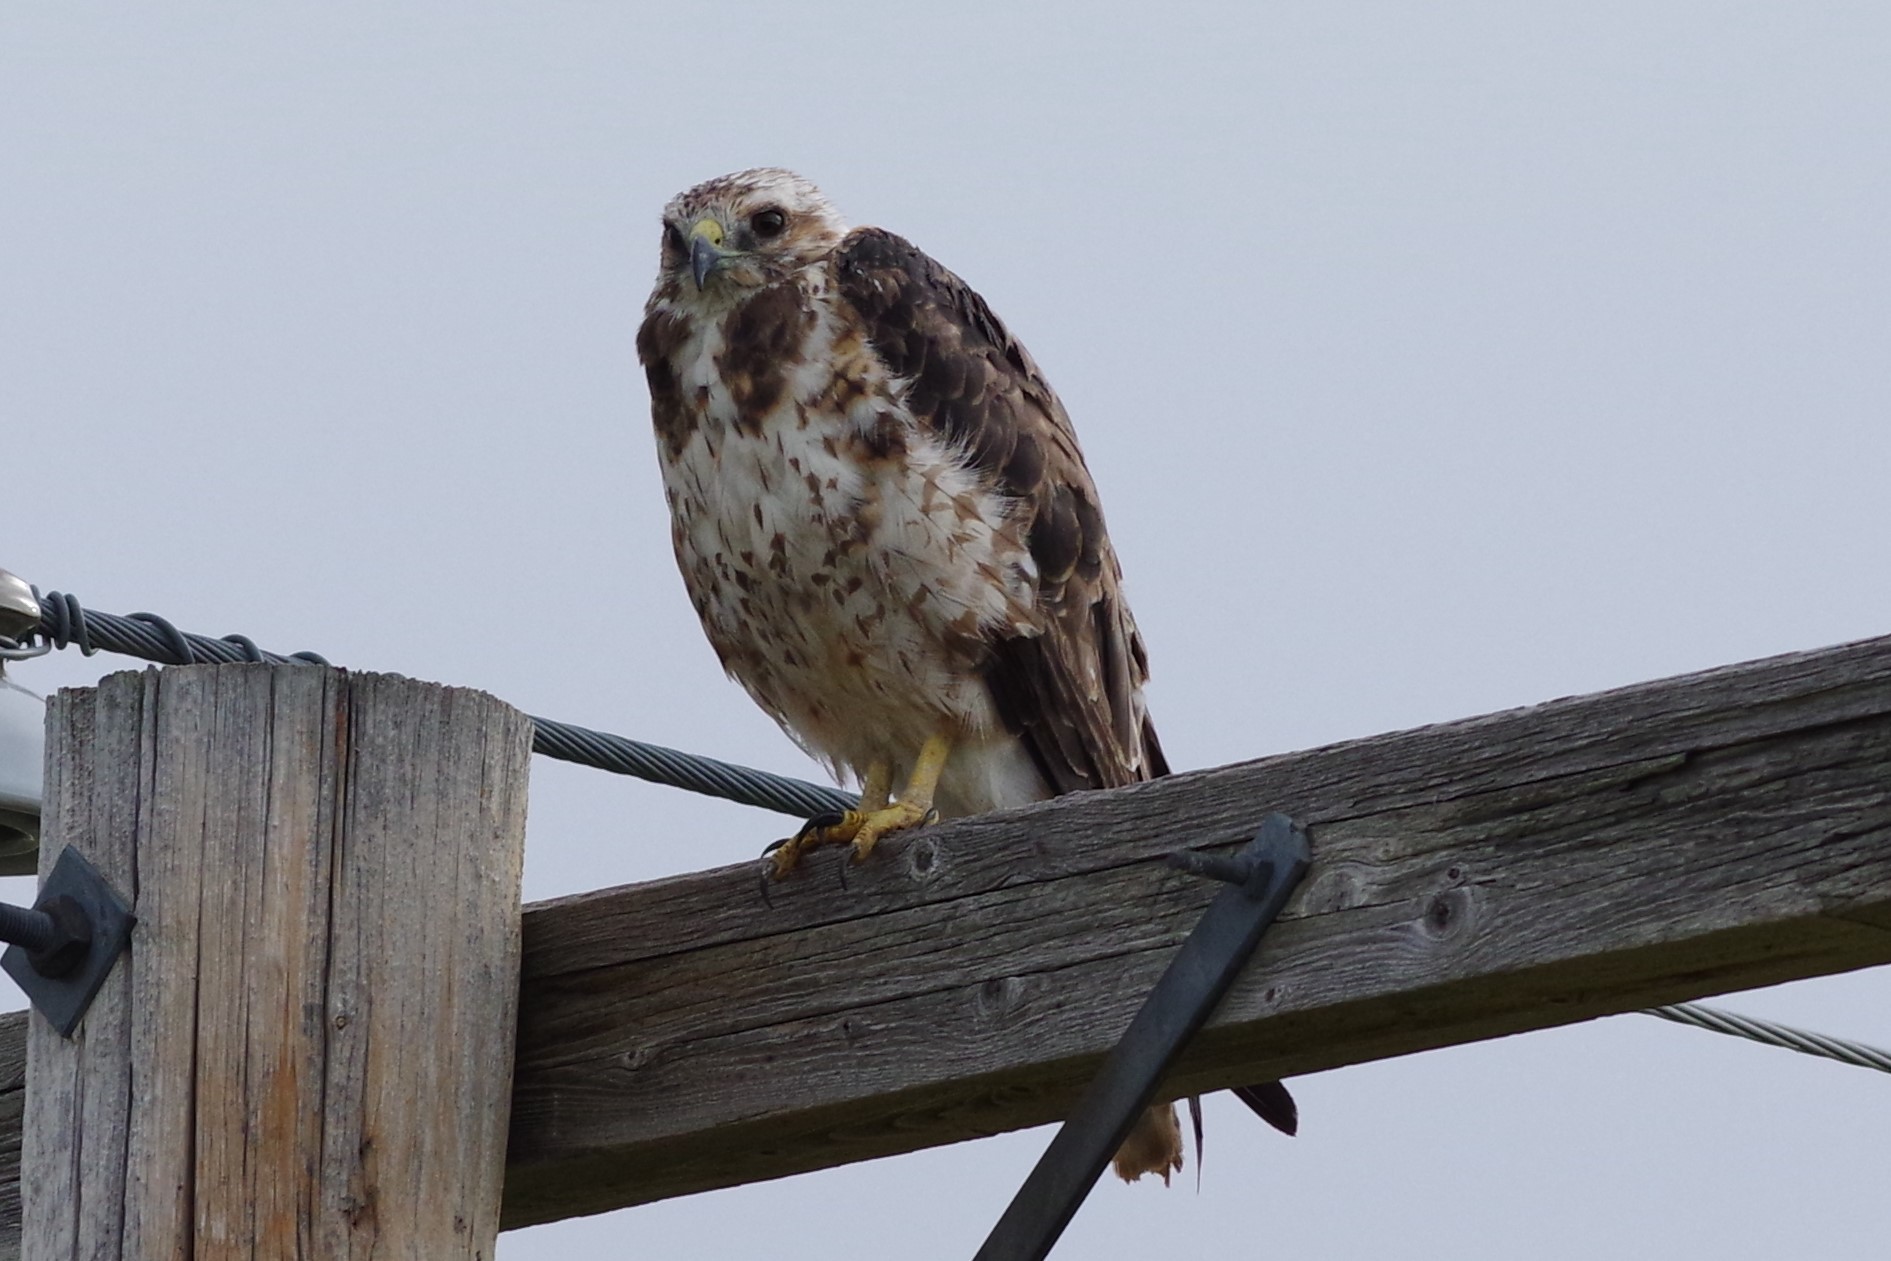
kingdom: Animalia
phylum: Chordata
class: Aves
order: Accipitriformes
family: Accipitridae
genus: Buteo
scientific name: Buteo swainsoni
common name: Swainson's hawk
